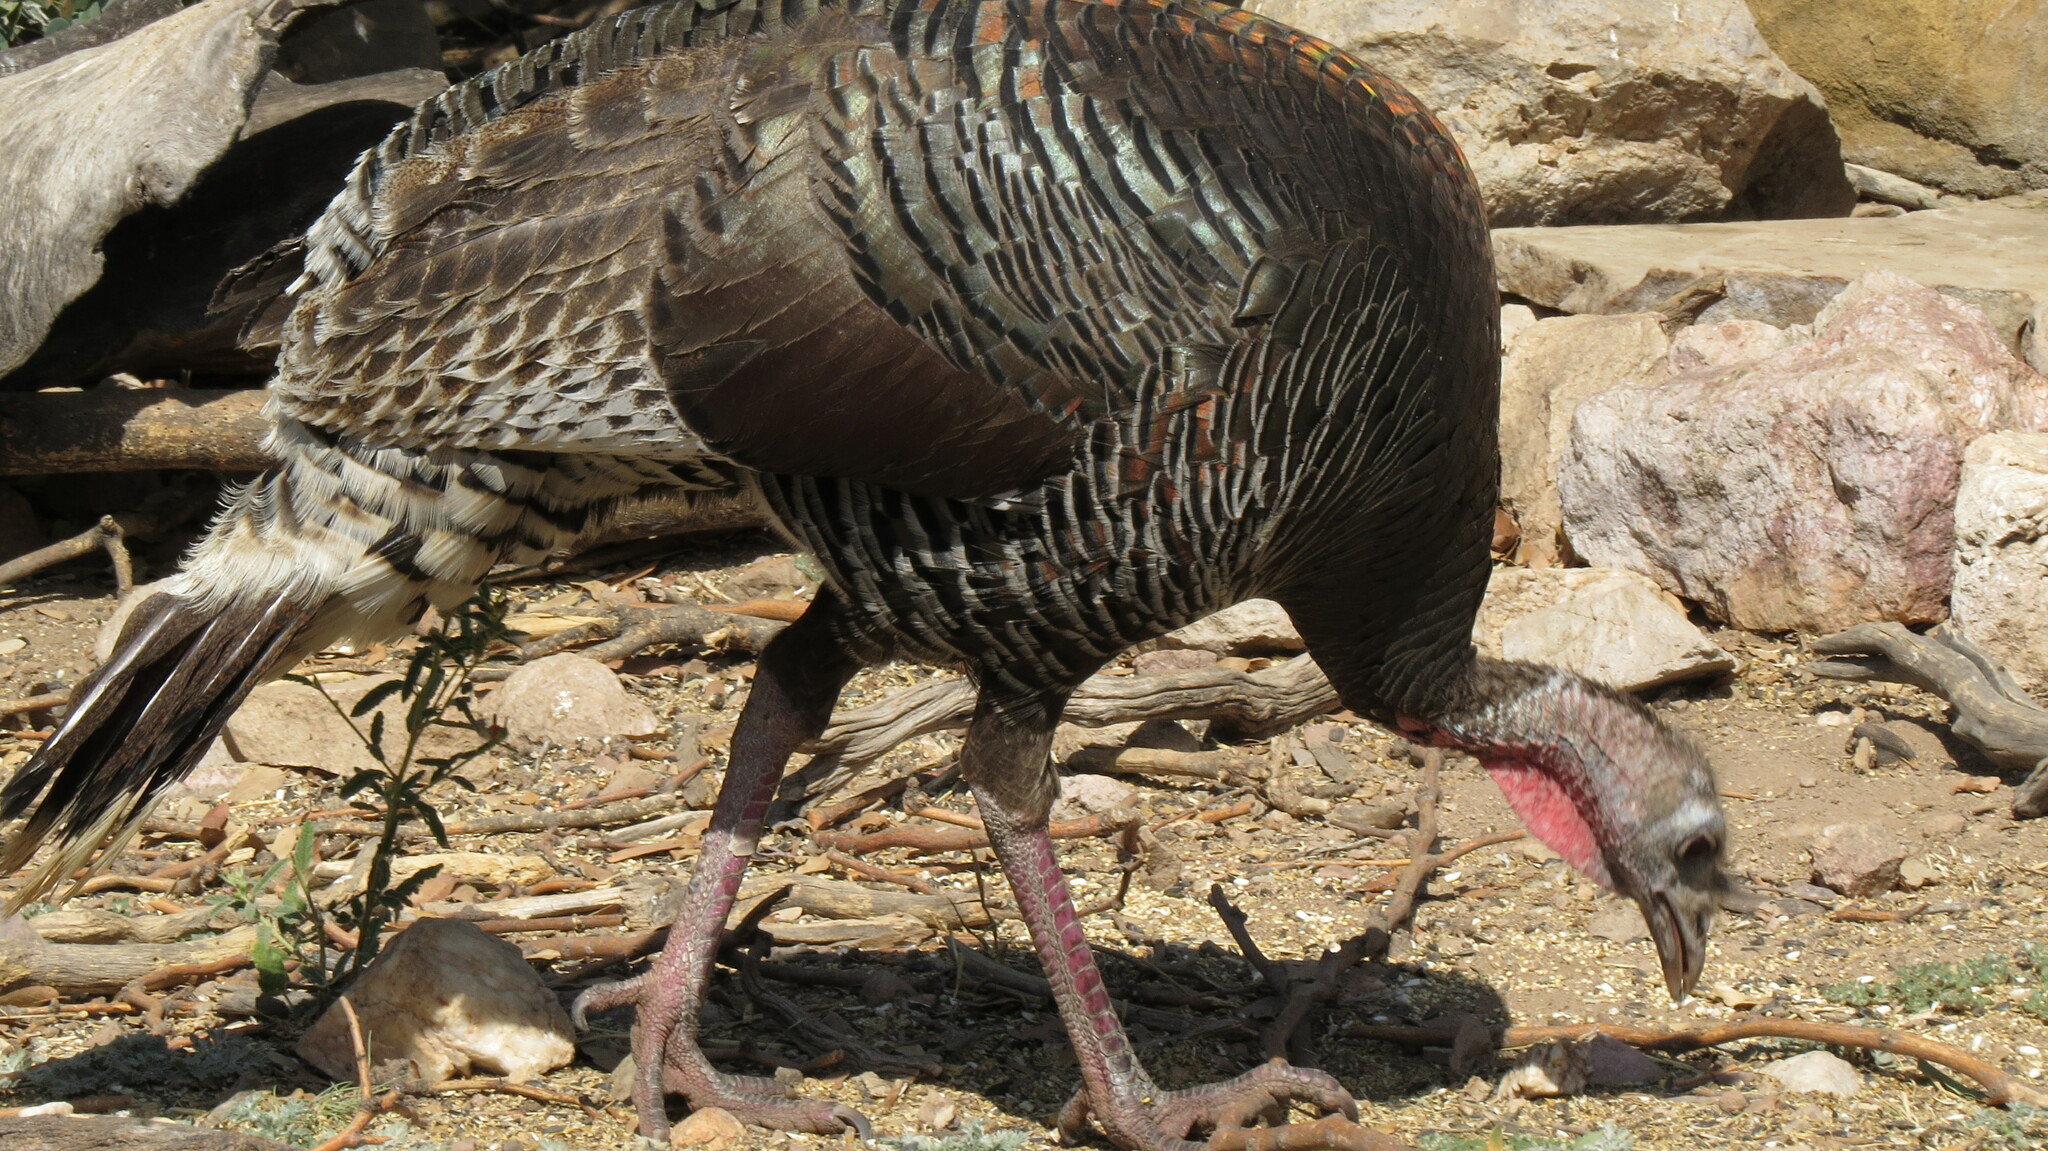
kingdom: Animalia
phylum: Chordata
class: Aves
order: Galliformes
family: Phasianidae
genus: Meleagris
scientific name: Meleagris gallopavo
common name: Wild turkey
